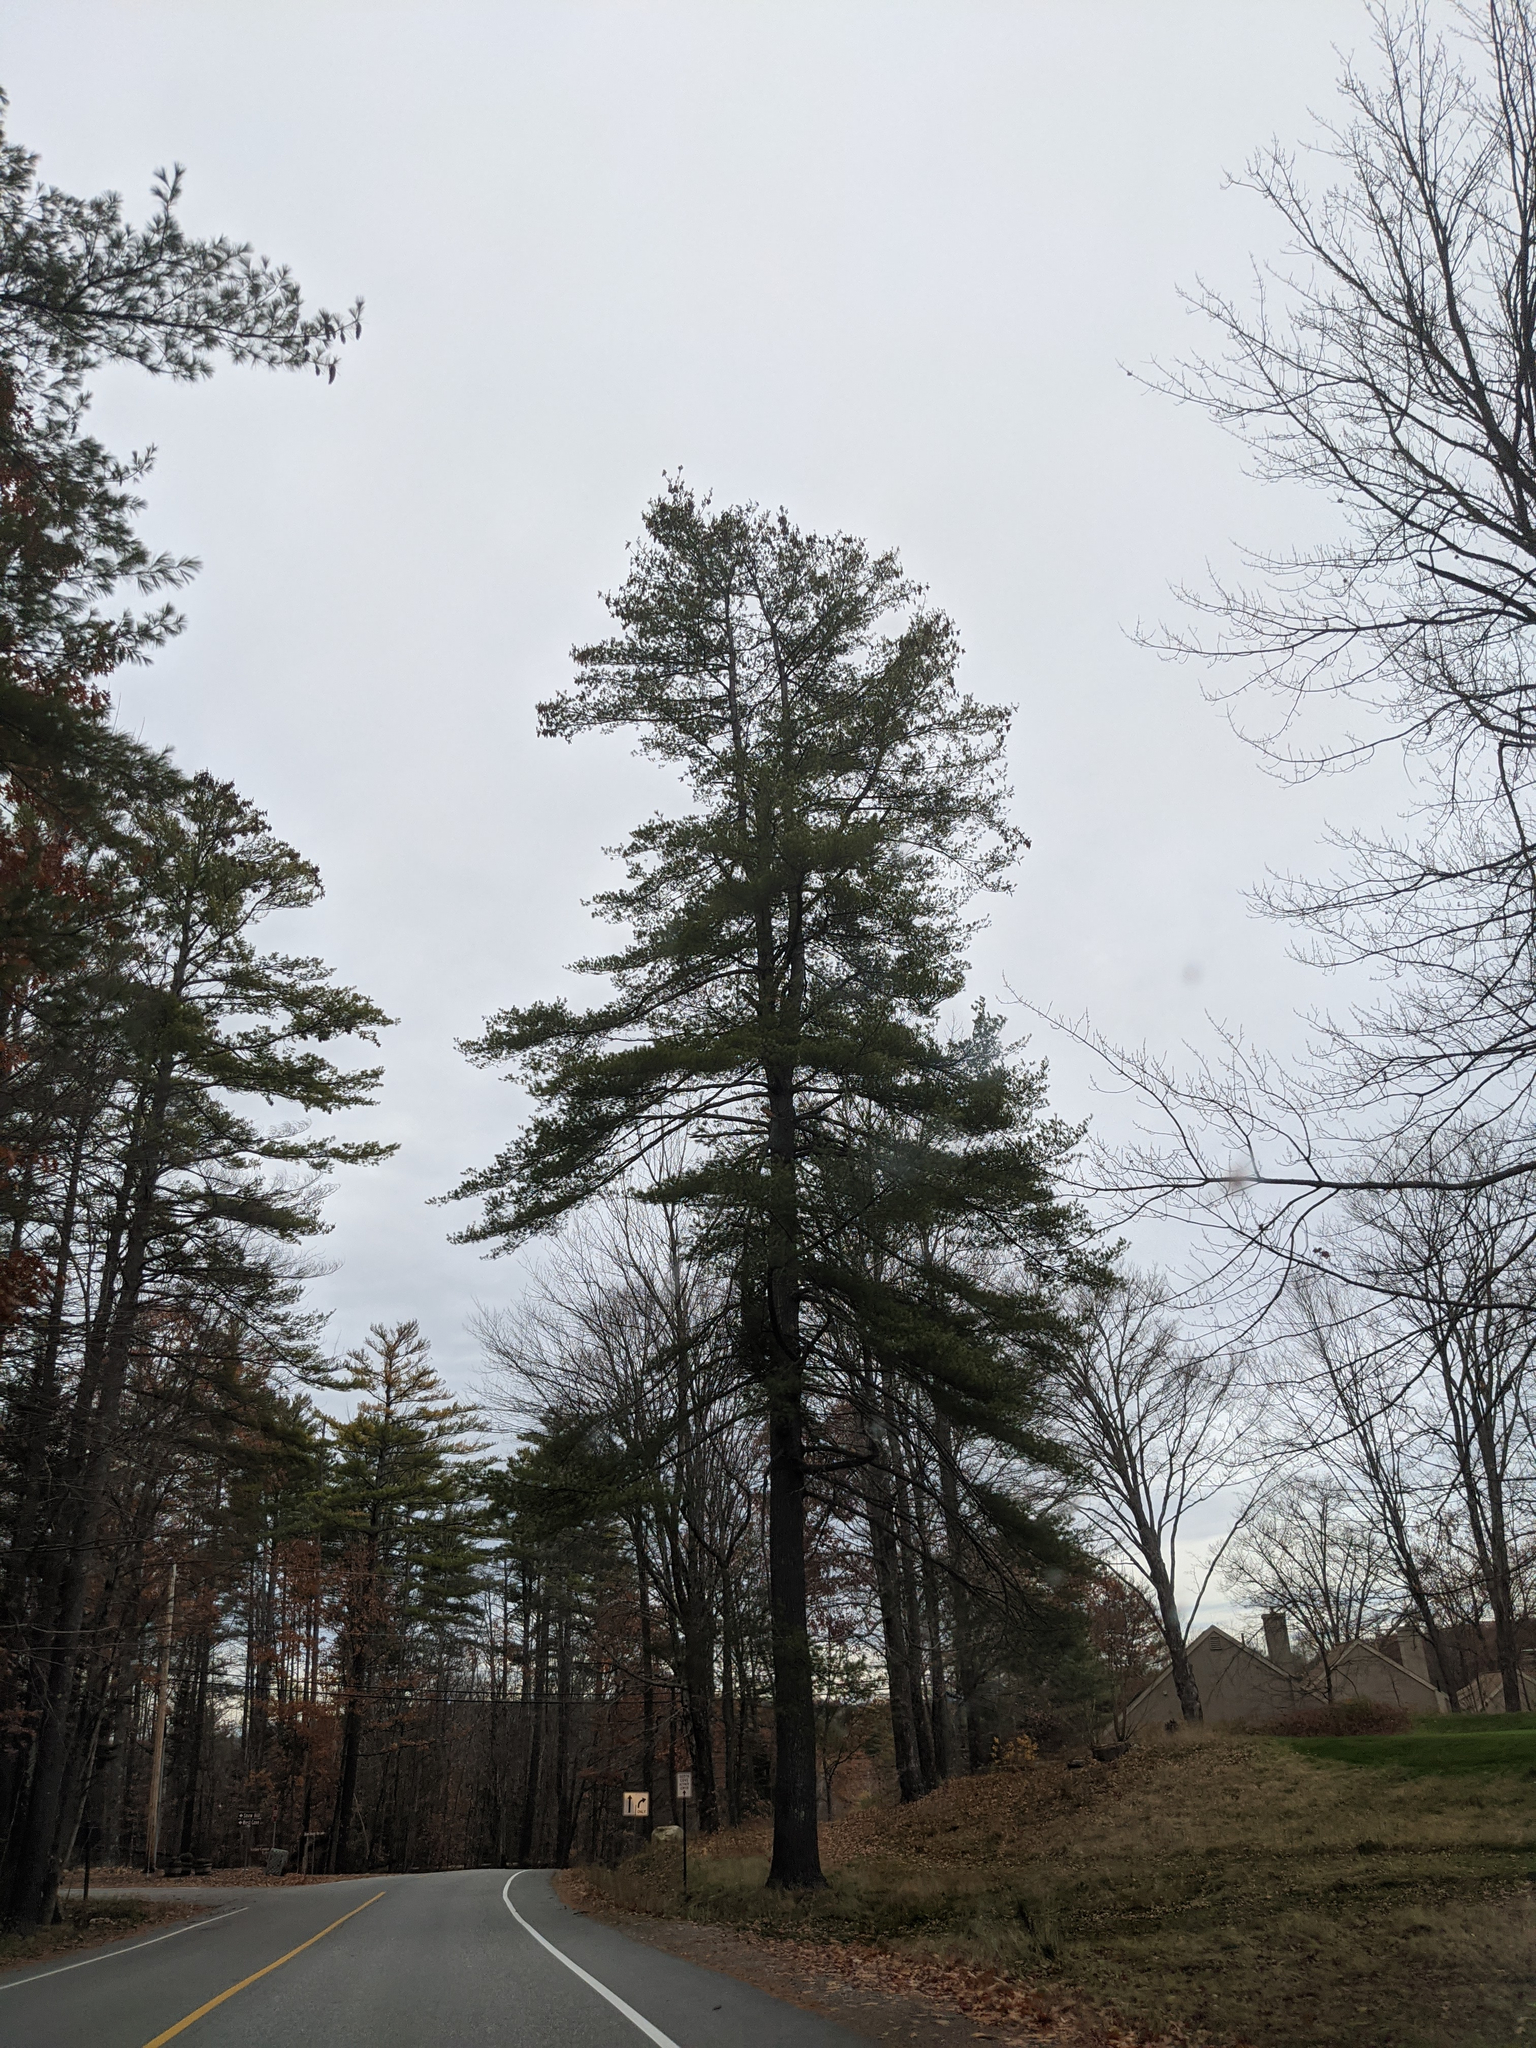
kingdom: Plantae
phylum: Tracheophyta
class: Pinopsida
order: Pinales
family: Pinaceae
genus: Pinus
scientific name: Pinus strobus
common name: Weymouth pine
